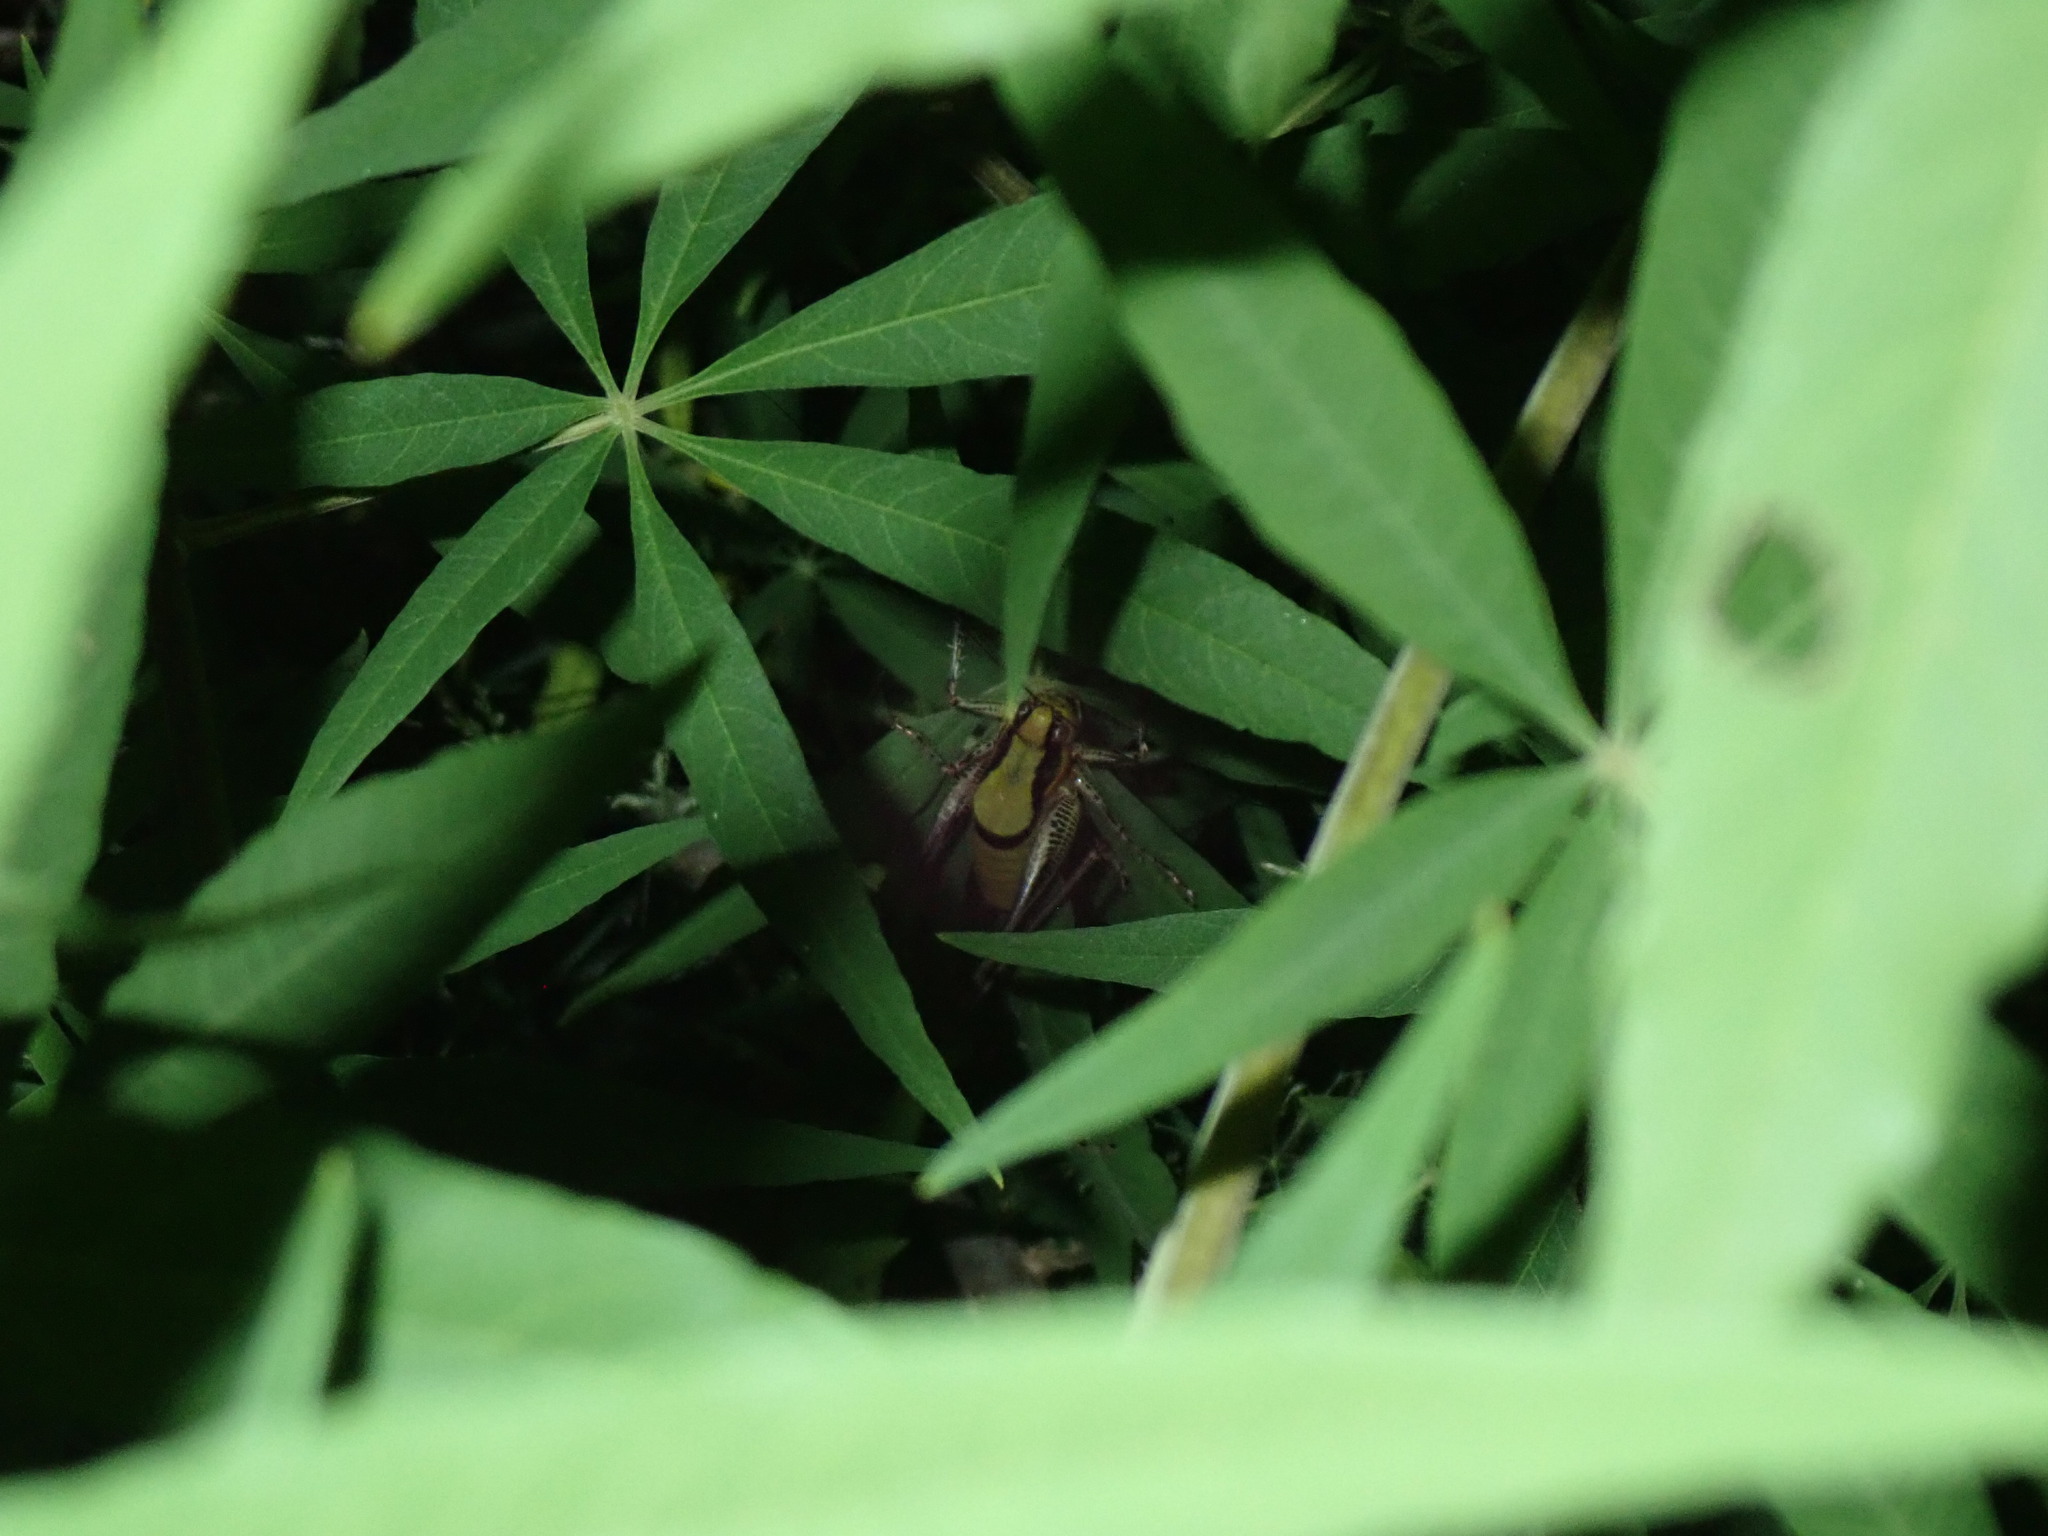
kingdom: Animalia
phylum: Arthropoda
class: Insecta
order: Orthoptera
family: Tettigoniidae
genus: Eupholidoptera
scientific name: Eupholidoptera schmidti
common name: Schmidt's marbled bush-cricket
